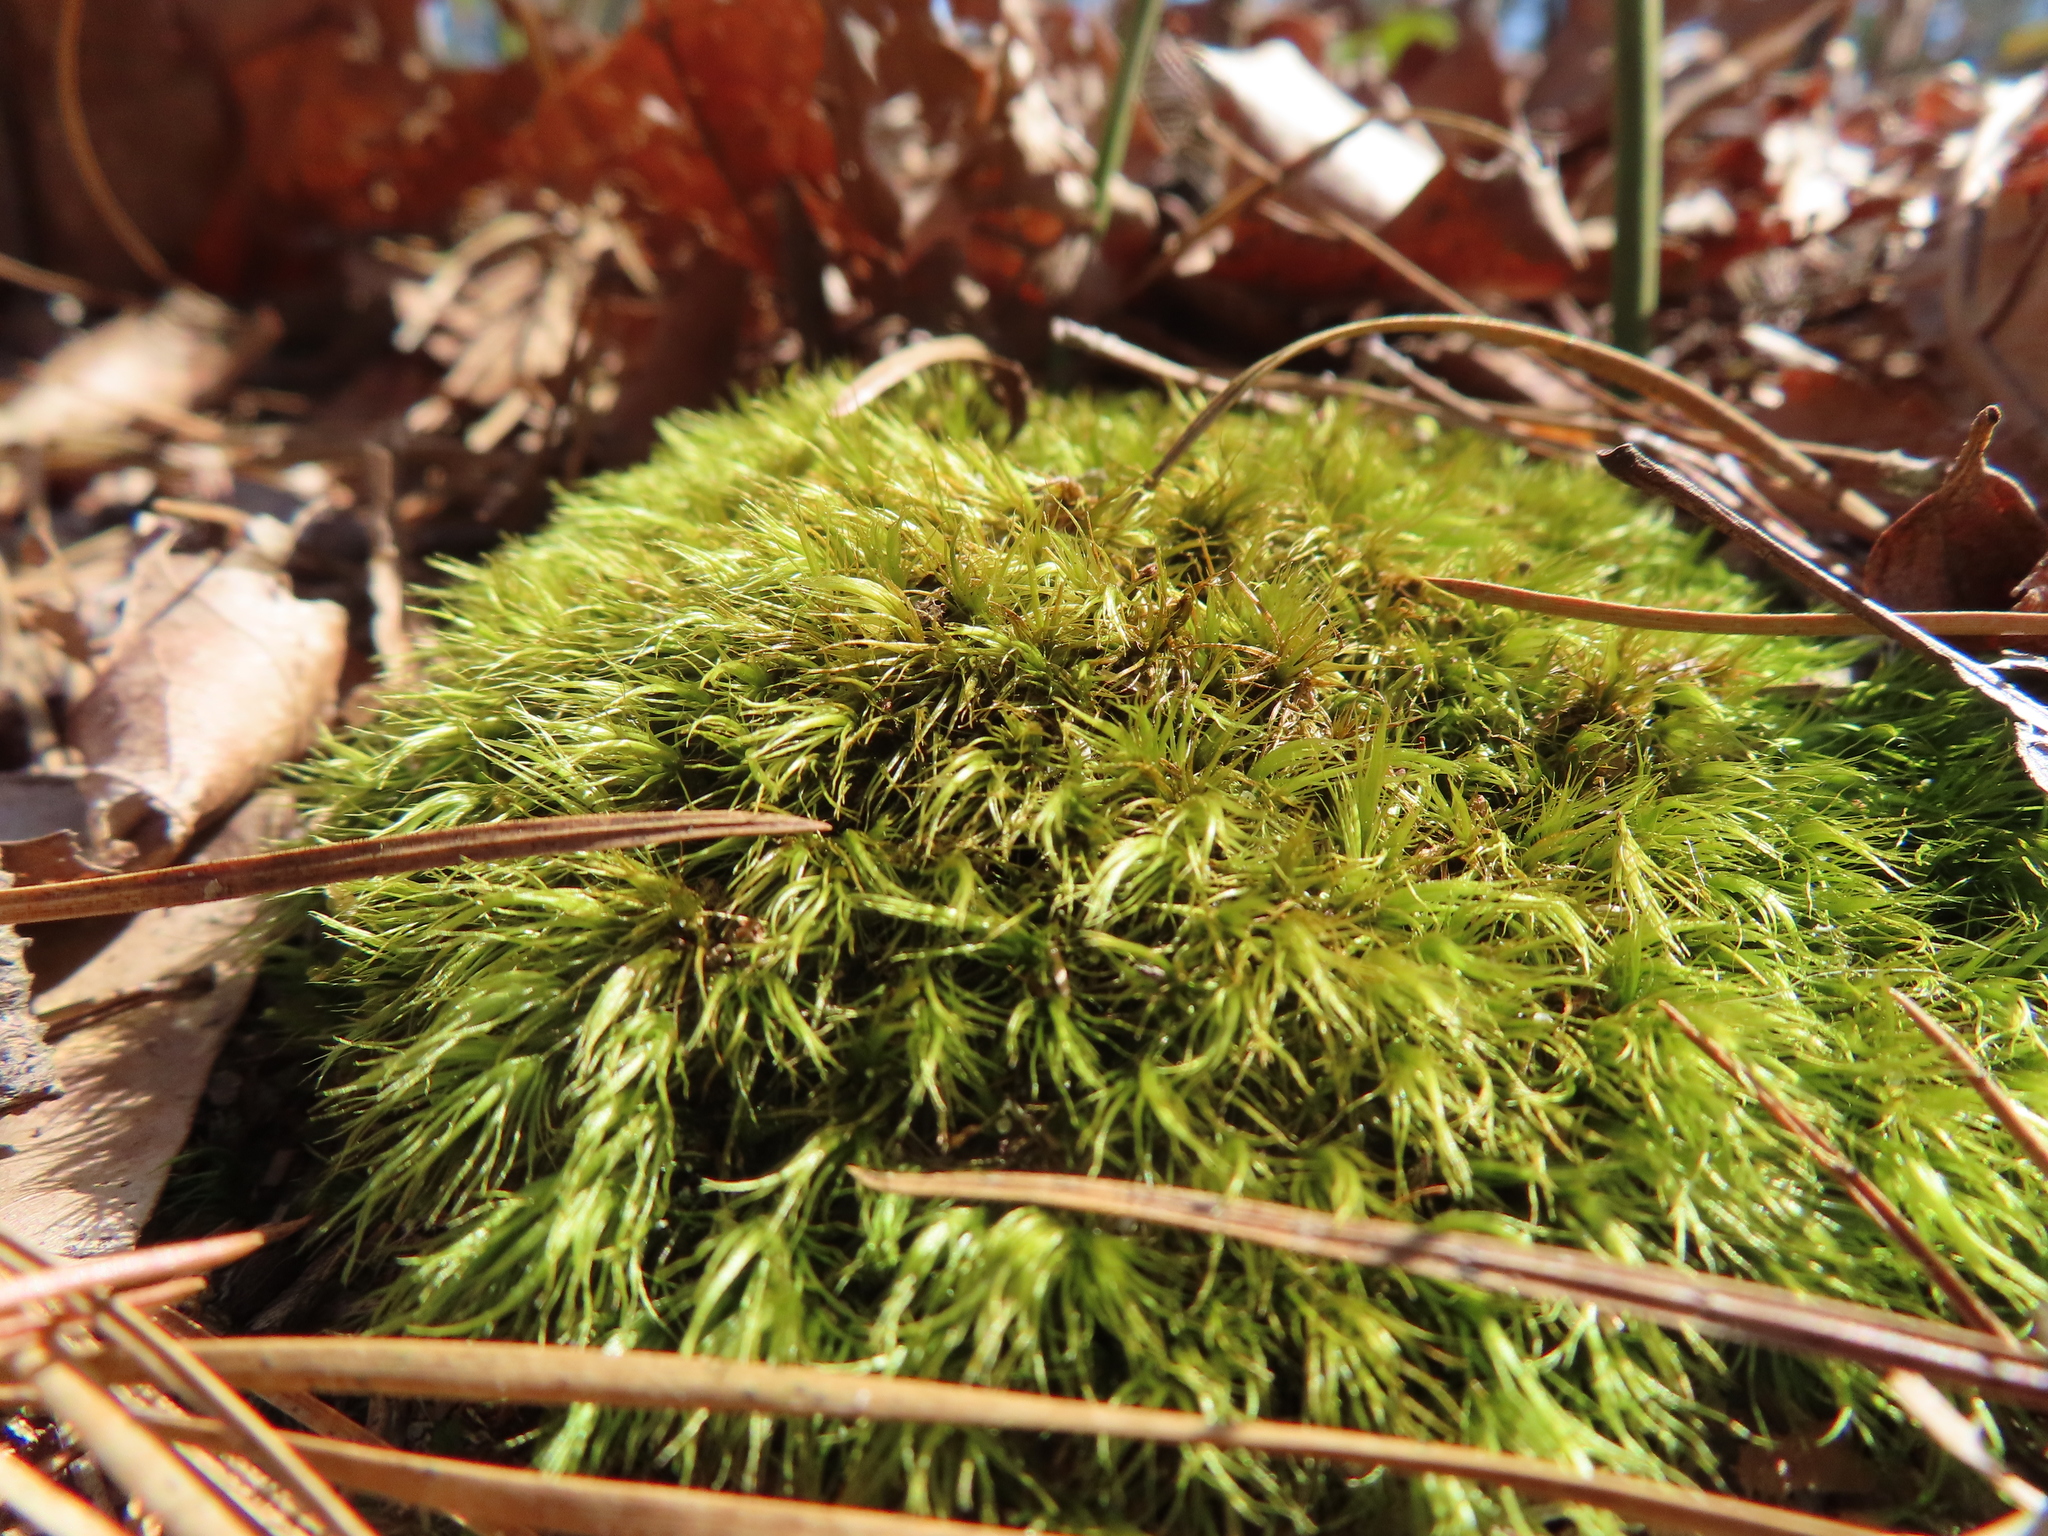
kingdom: Plantae
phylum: Bryophyta
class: Bryopsida
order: Dicranales
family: Dicranaceae
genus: Dicranum
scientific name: Dicranum scoparium
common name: Broom fork-moss
